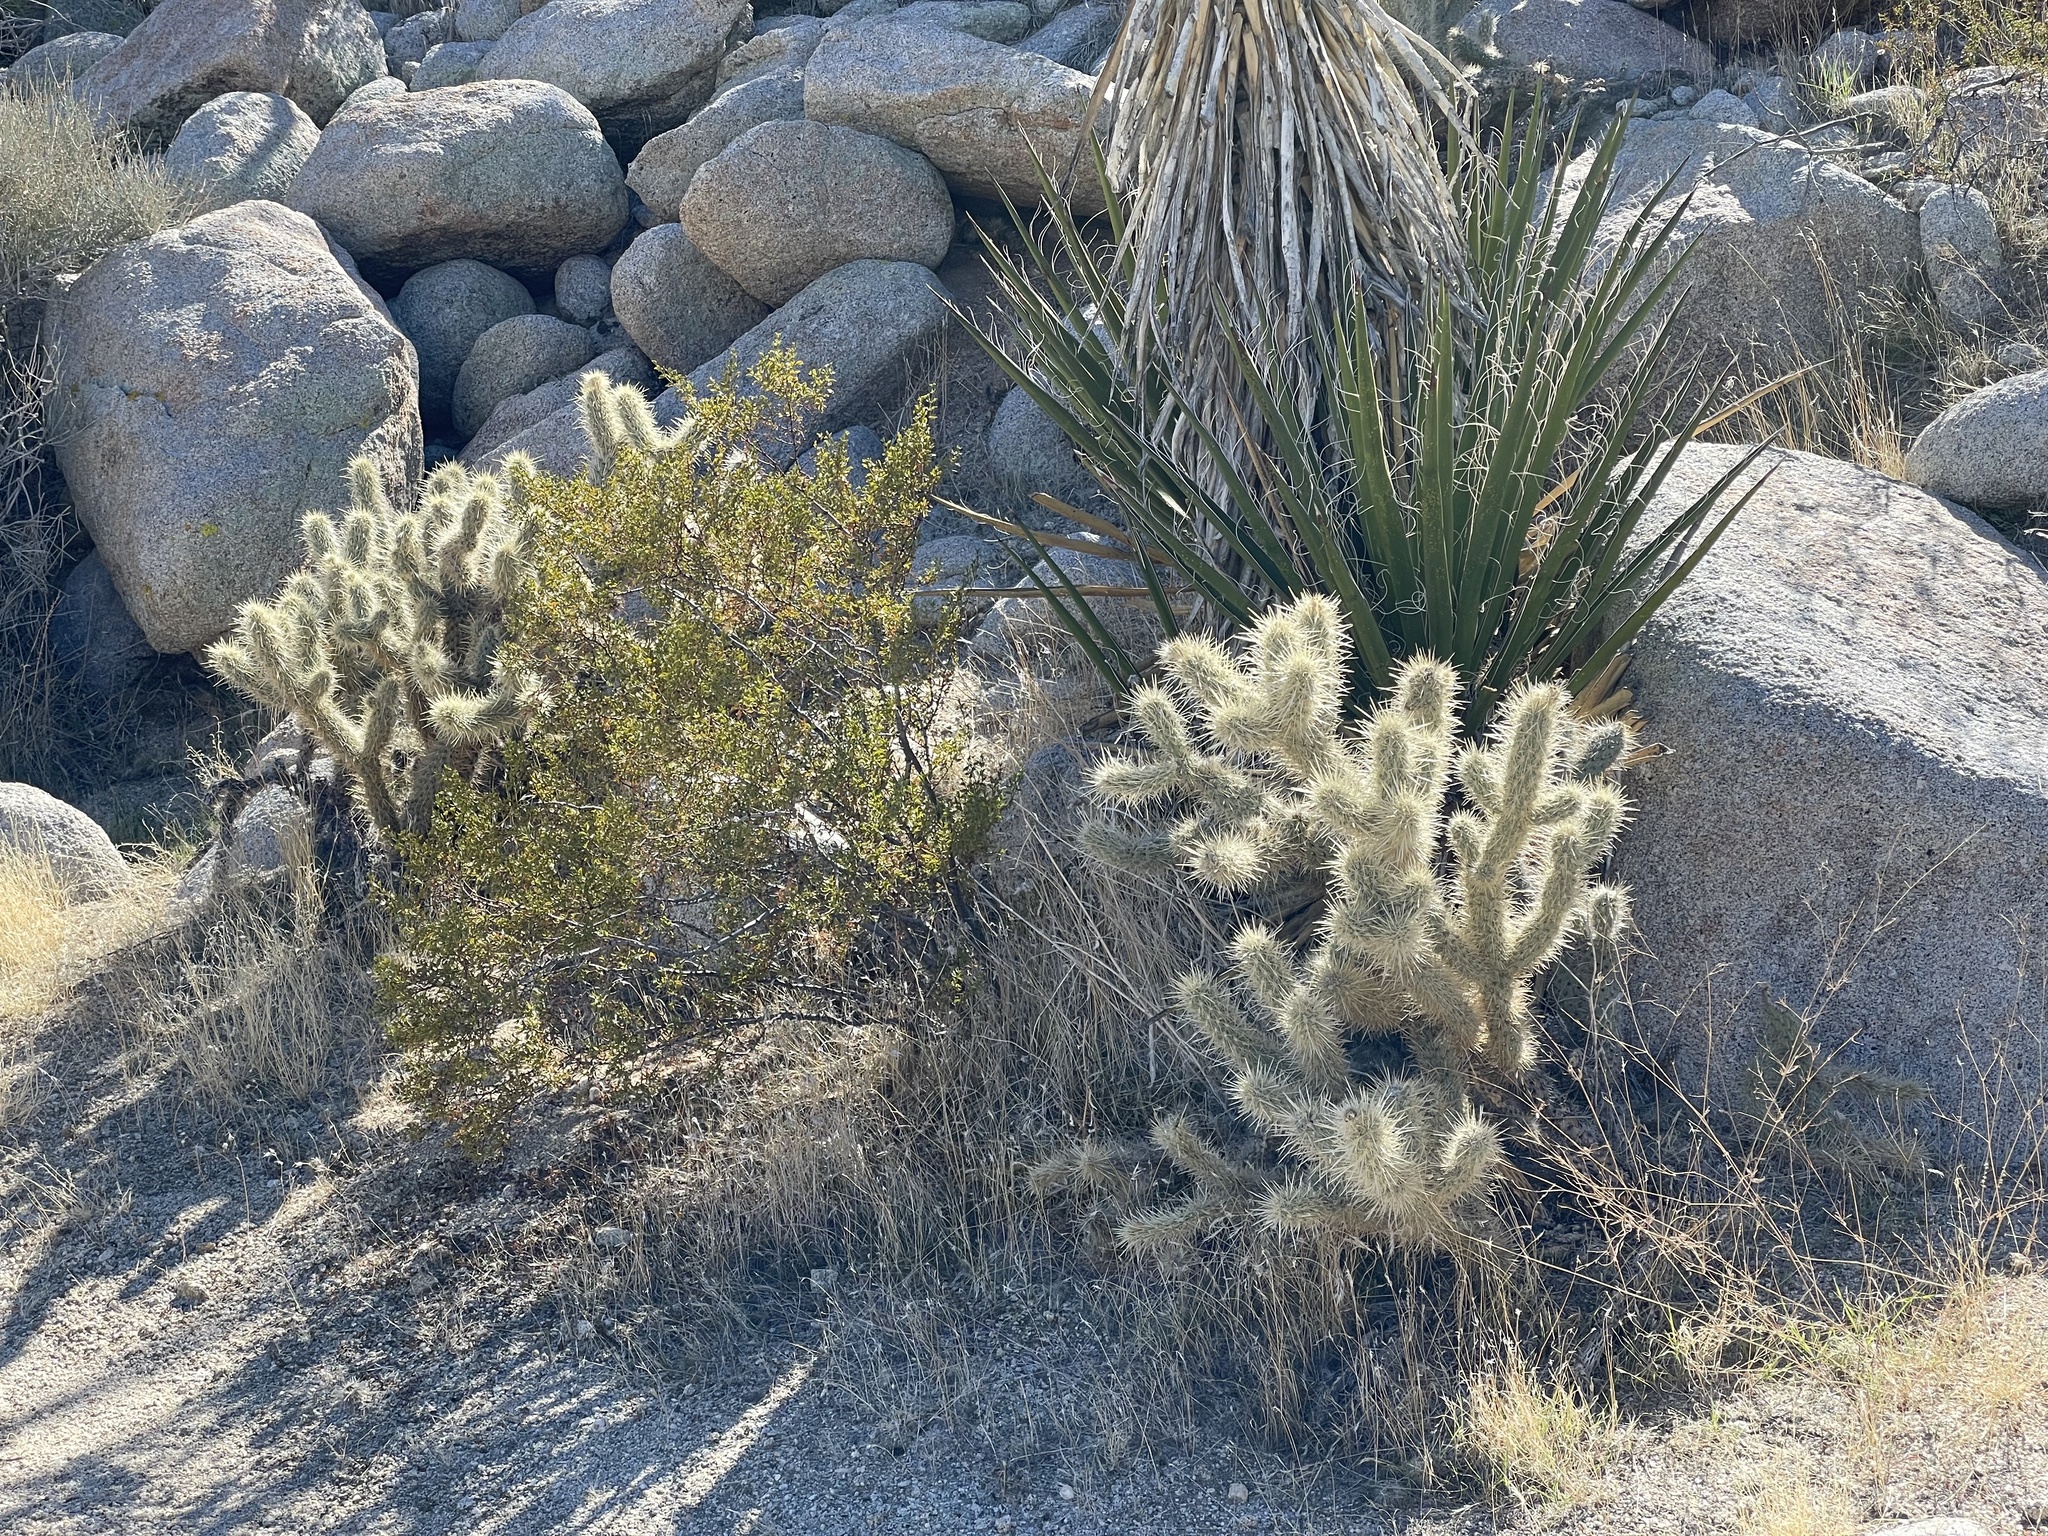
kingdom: Plantae
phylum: Tracheophyta
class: Magnoliopsida
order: Caryophyllales
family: Cactaceae
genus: Cylindropuntia
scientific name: Cylindropuntia ganderi
